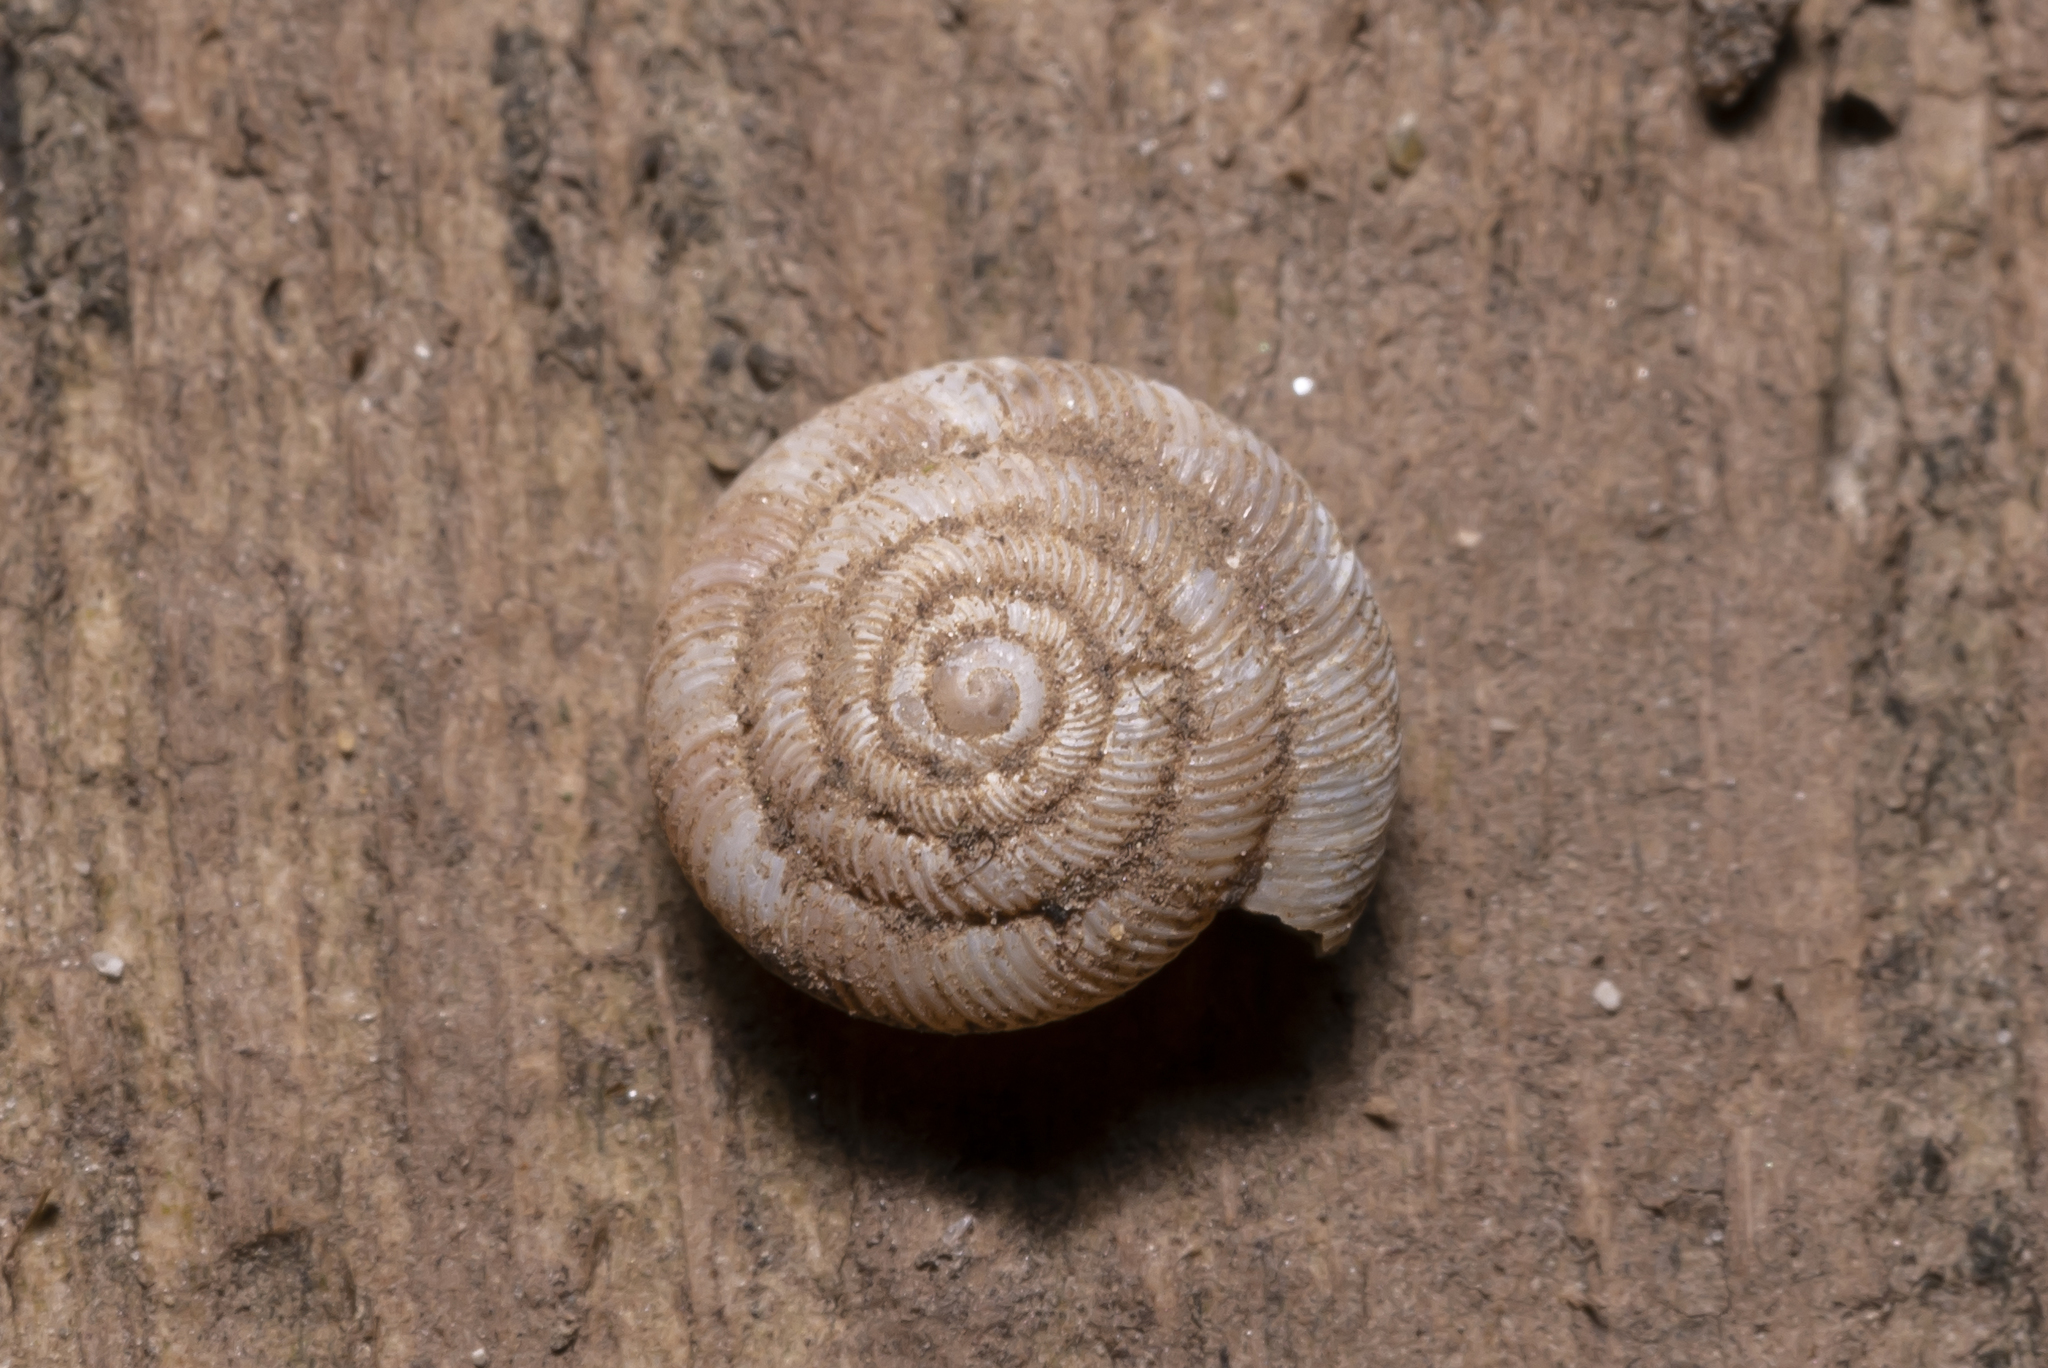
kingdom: Animalia
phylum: Mollusca
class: Gastropoda
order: Stylommatophora
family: Discidae
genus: Discus
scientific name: Discus rotundatus
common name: Rounded snail
